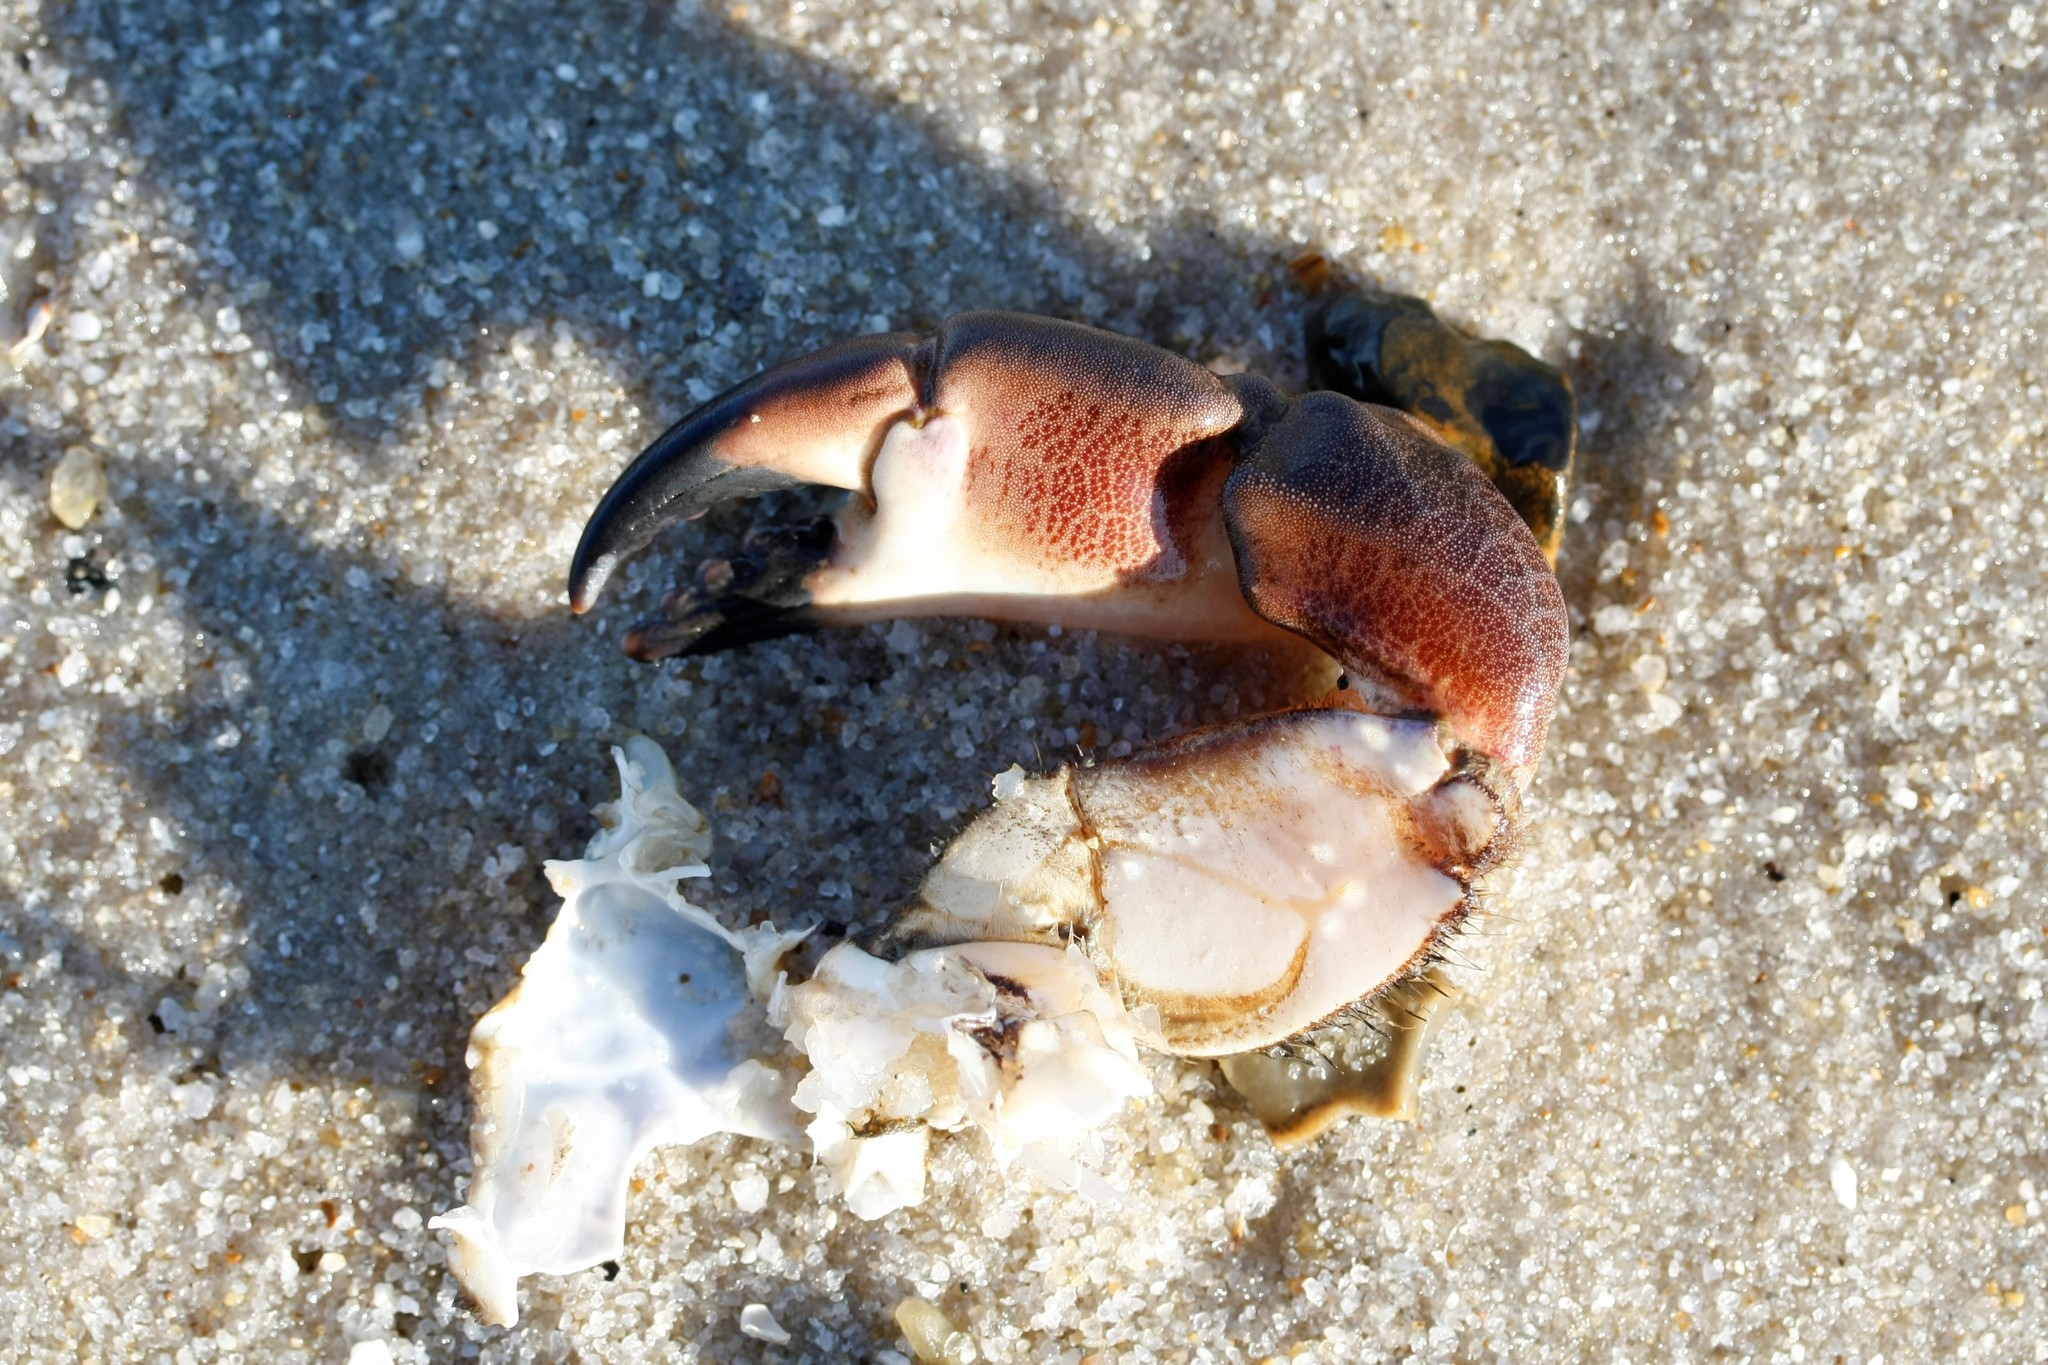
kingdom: Animalia
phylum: Arthropoda
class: Malacostraca
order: Decapoda
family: Cancridae
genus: Cancer
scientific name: Cancer pagurus
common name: Edible crab
